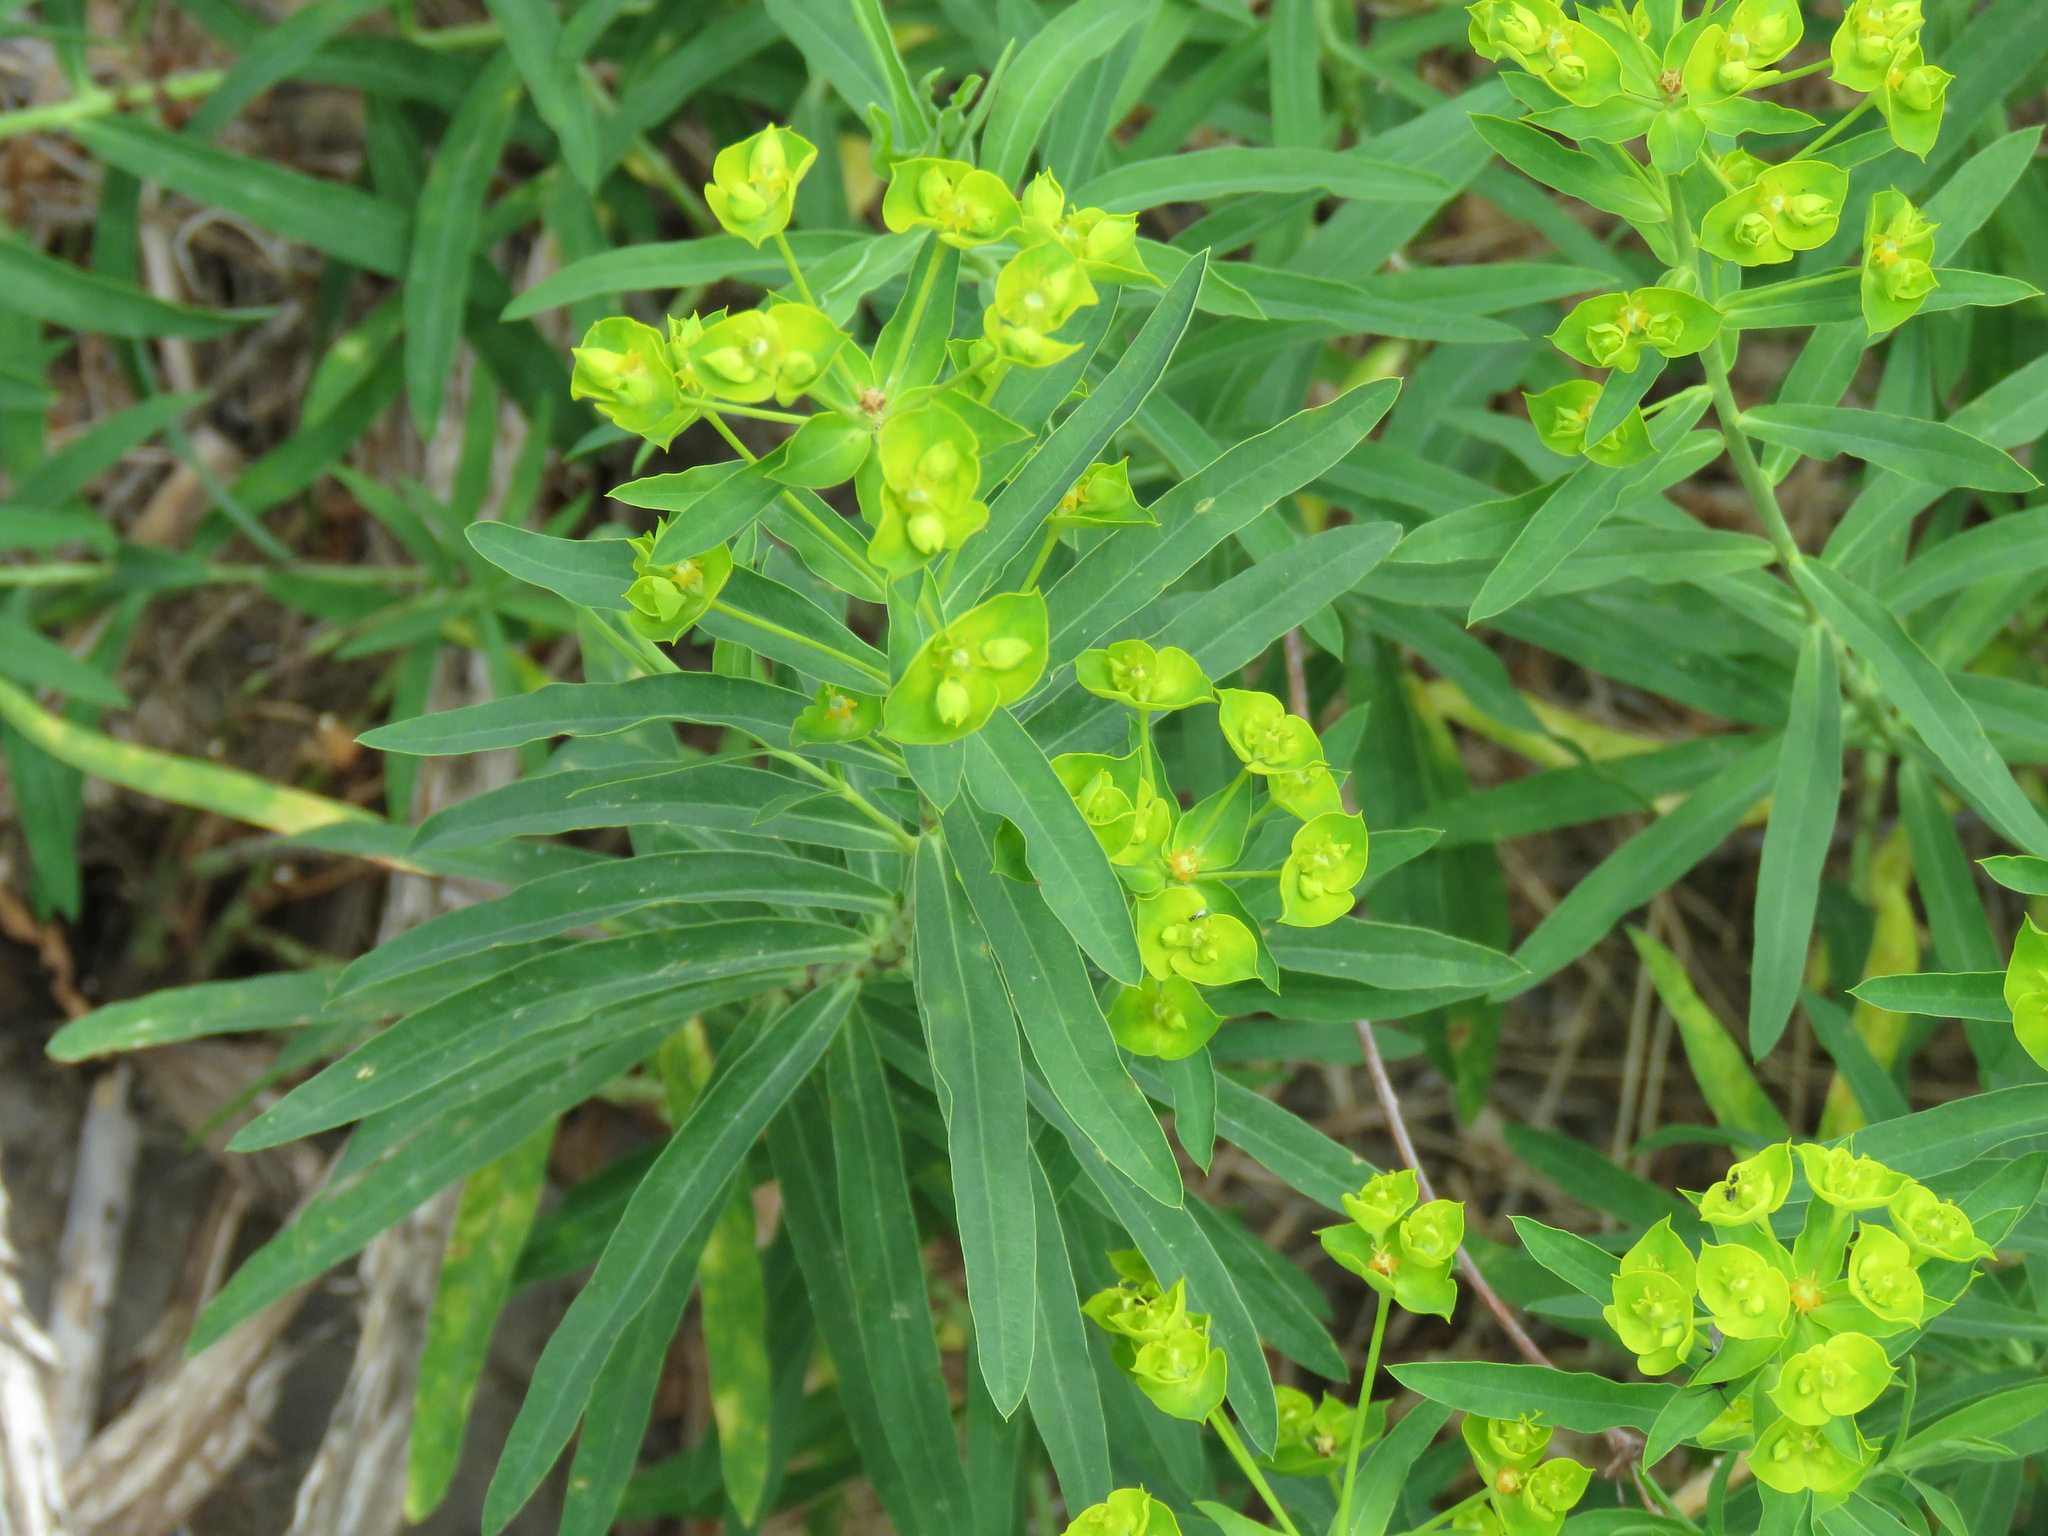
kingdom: Plantae
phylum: Tracheophyta
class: Magnoliopsida
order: Malpighiales
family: Euphorbiaceae
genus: Euphorbia
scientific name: Euphorbia virgata
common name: Leafy spurge
